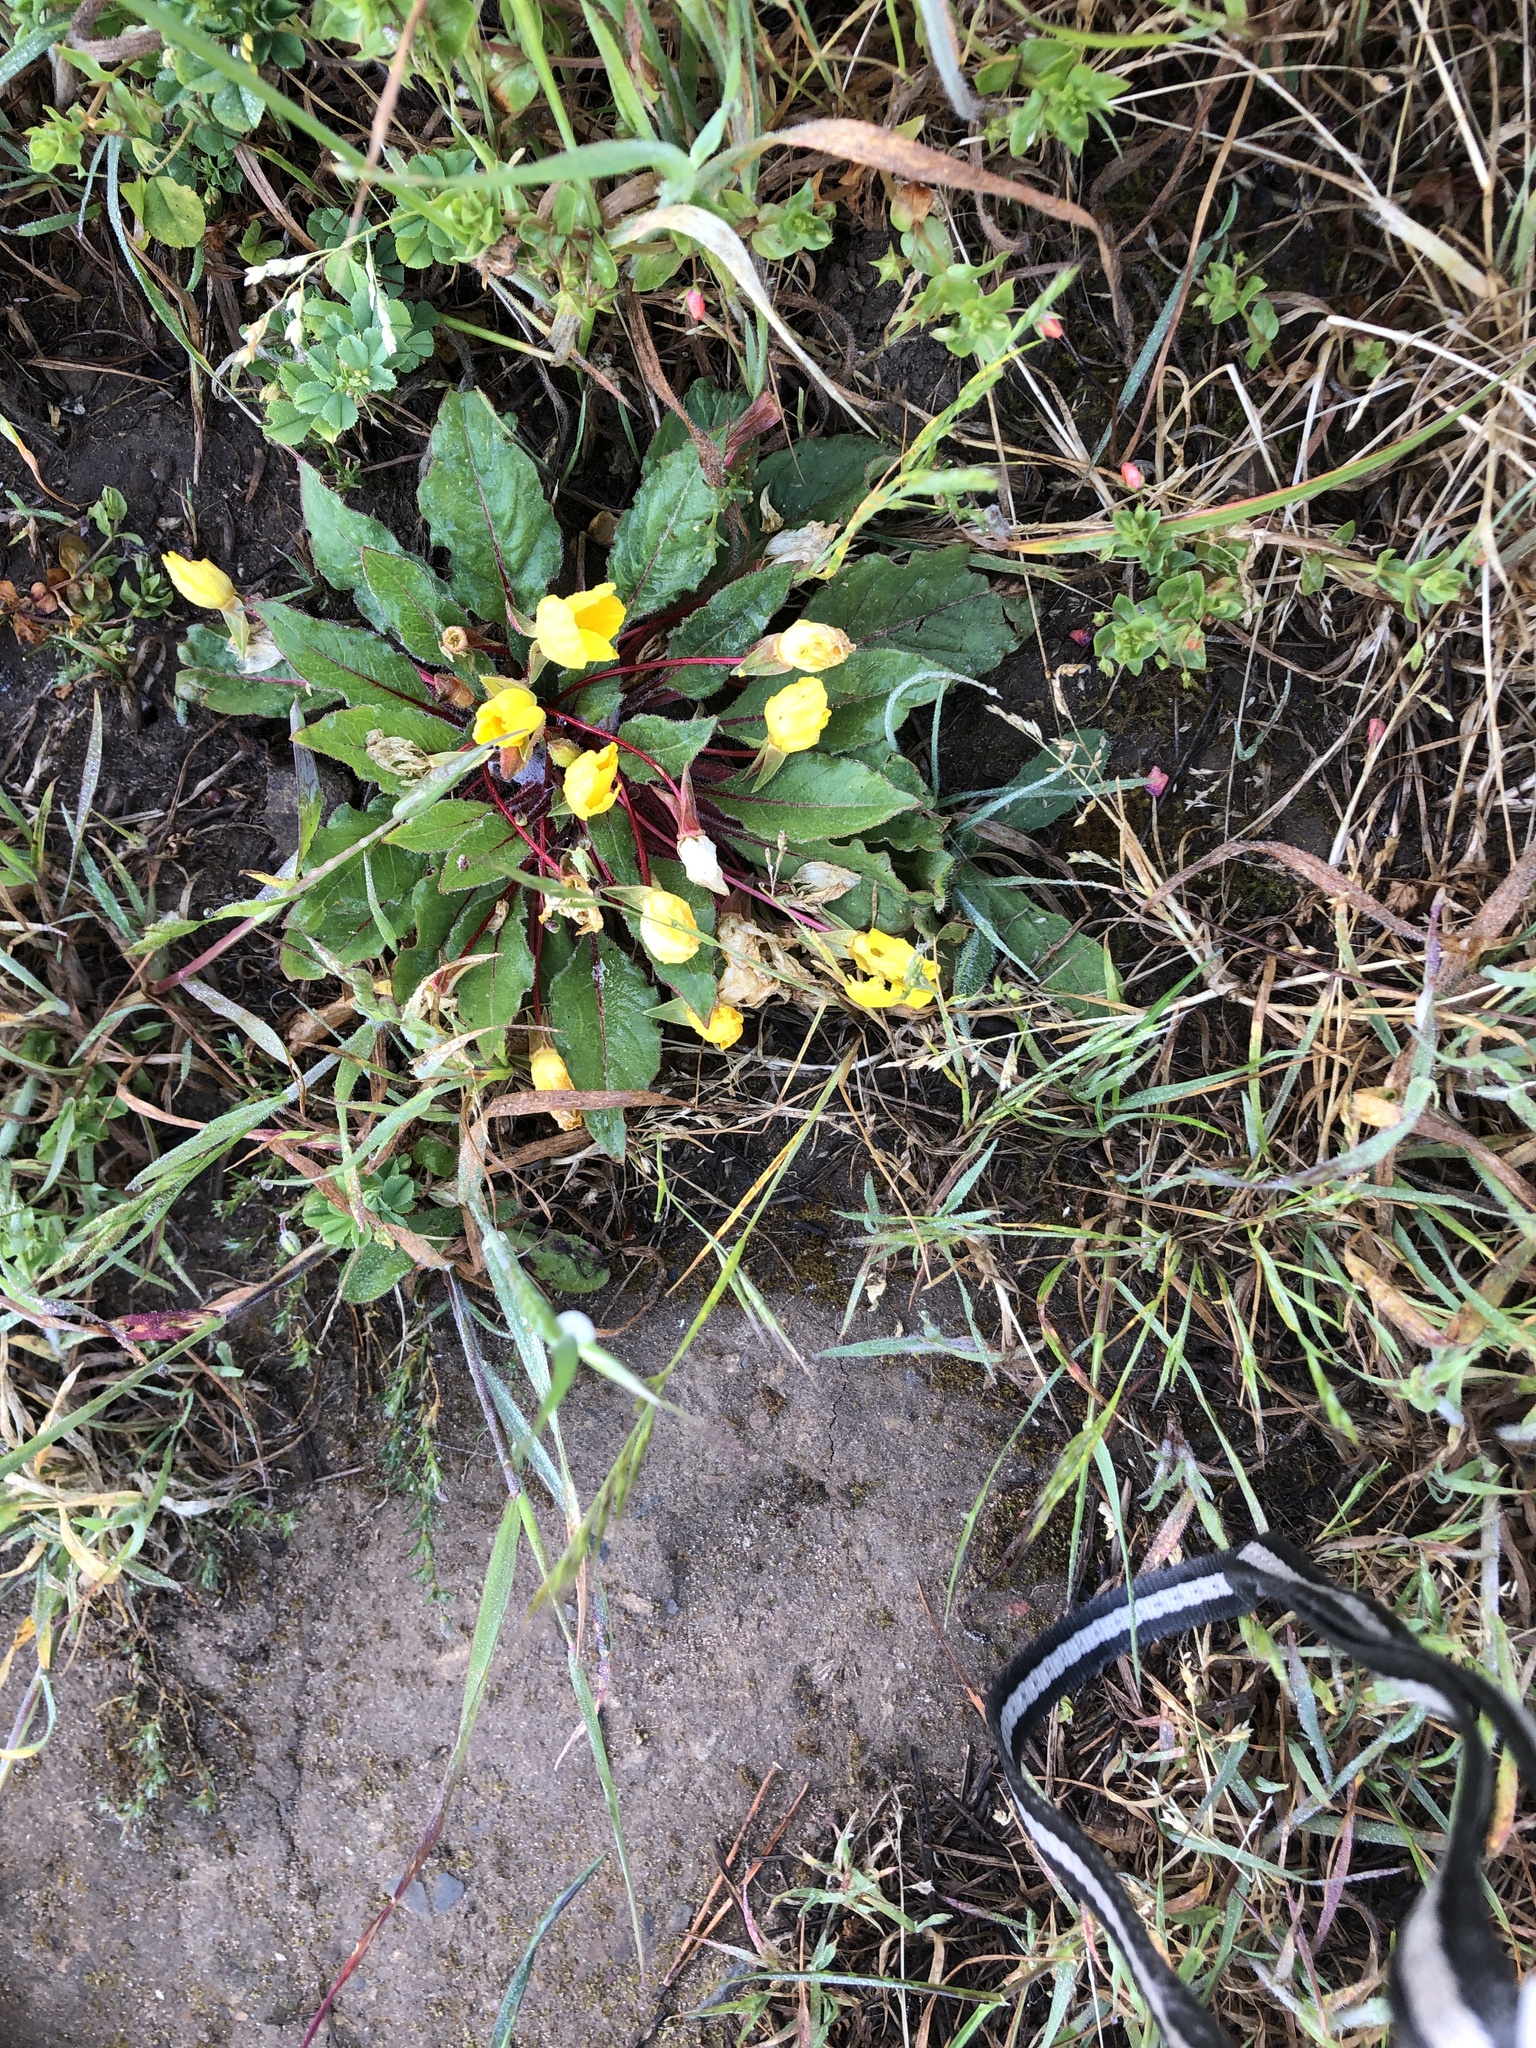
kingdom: Plantae
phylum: Tracheophyta
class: Magnoliopsida
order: Myrtales
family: Onagraceae
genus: Taraxia
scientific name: Taraxia ovata
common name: Goldeneggs
